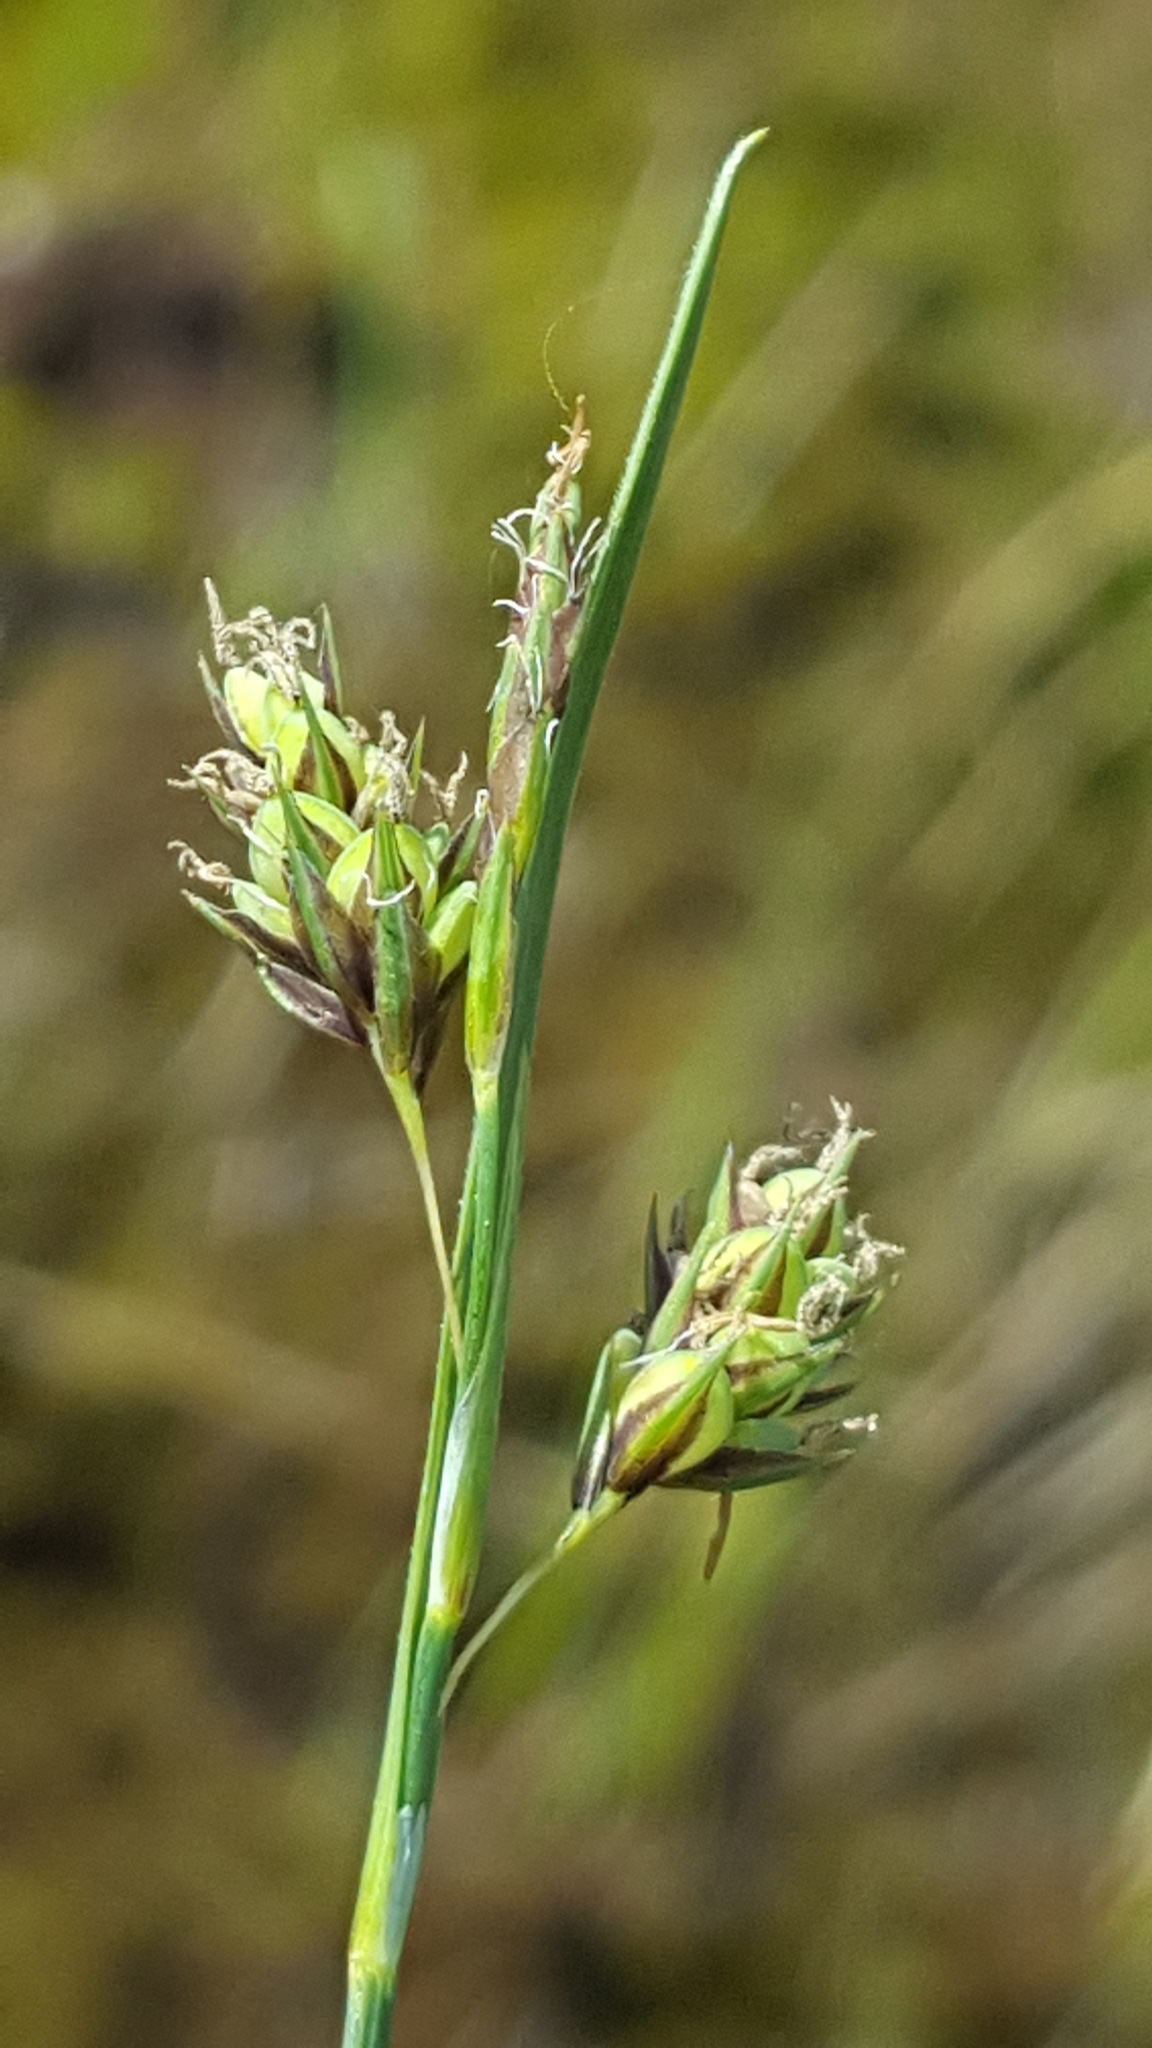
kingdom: Plantae
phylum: Tracheophyta
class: Liliopsida
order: Poales
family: Cyperaceae
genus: Carex
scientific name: Carex magellanica
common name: Bog sedge
